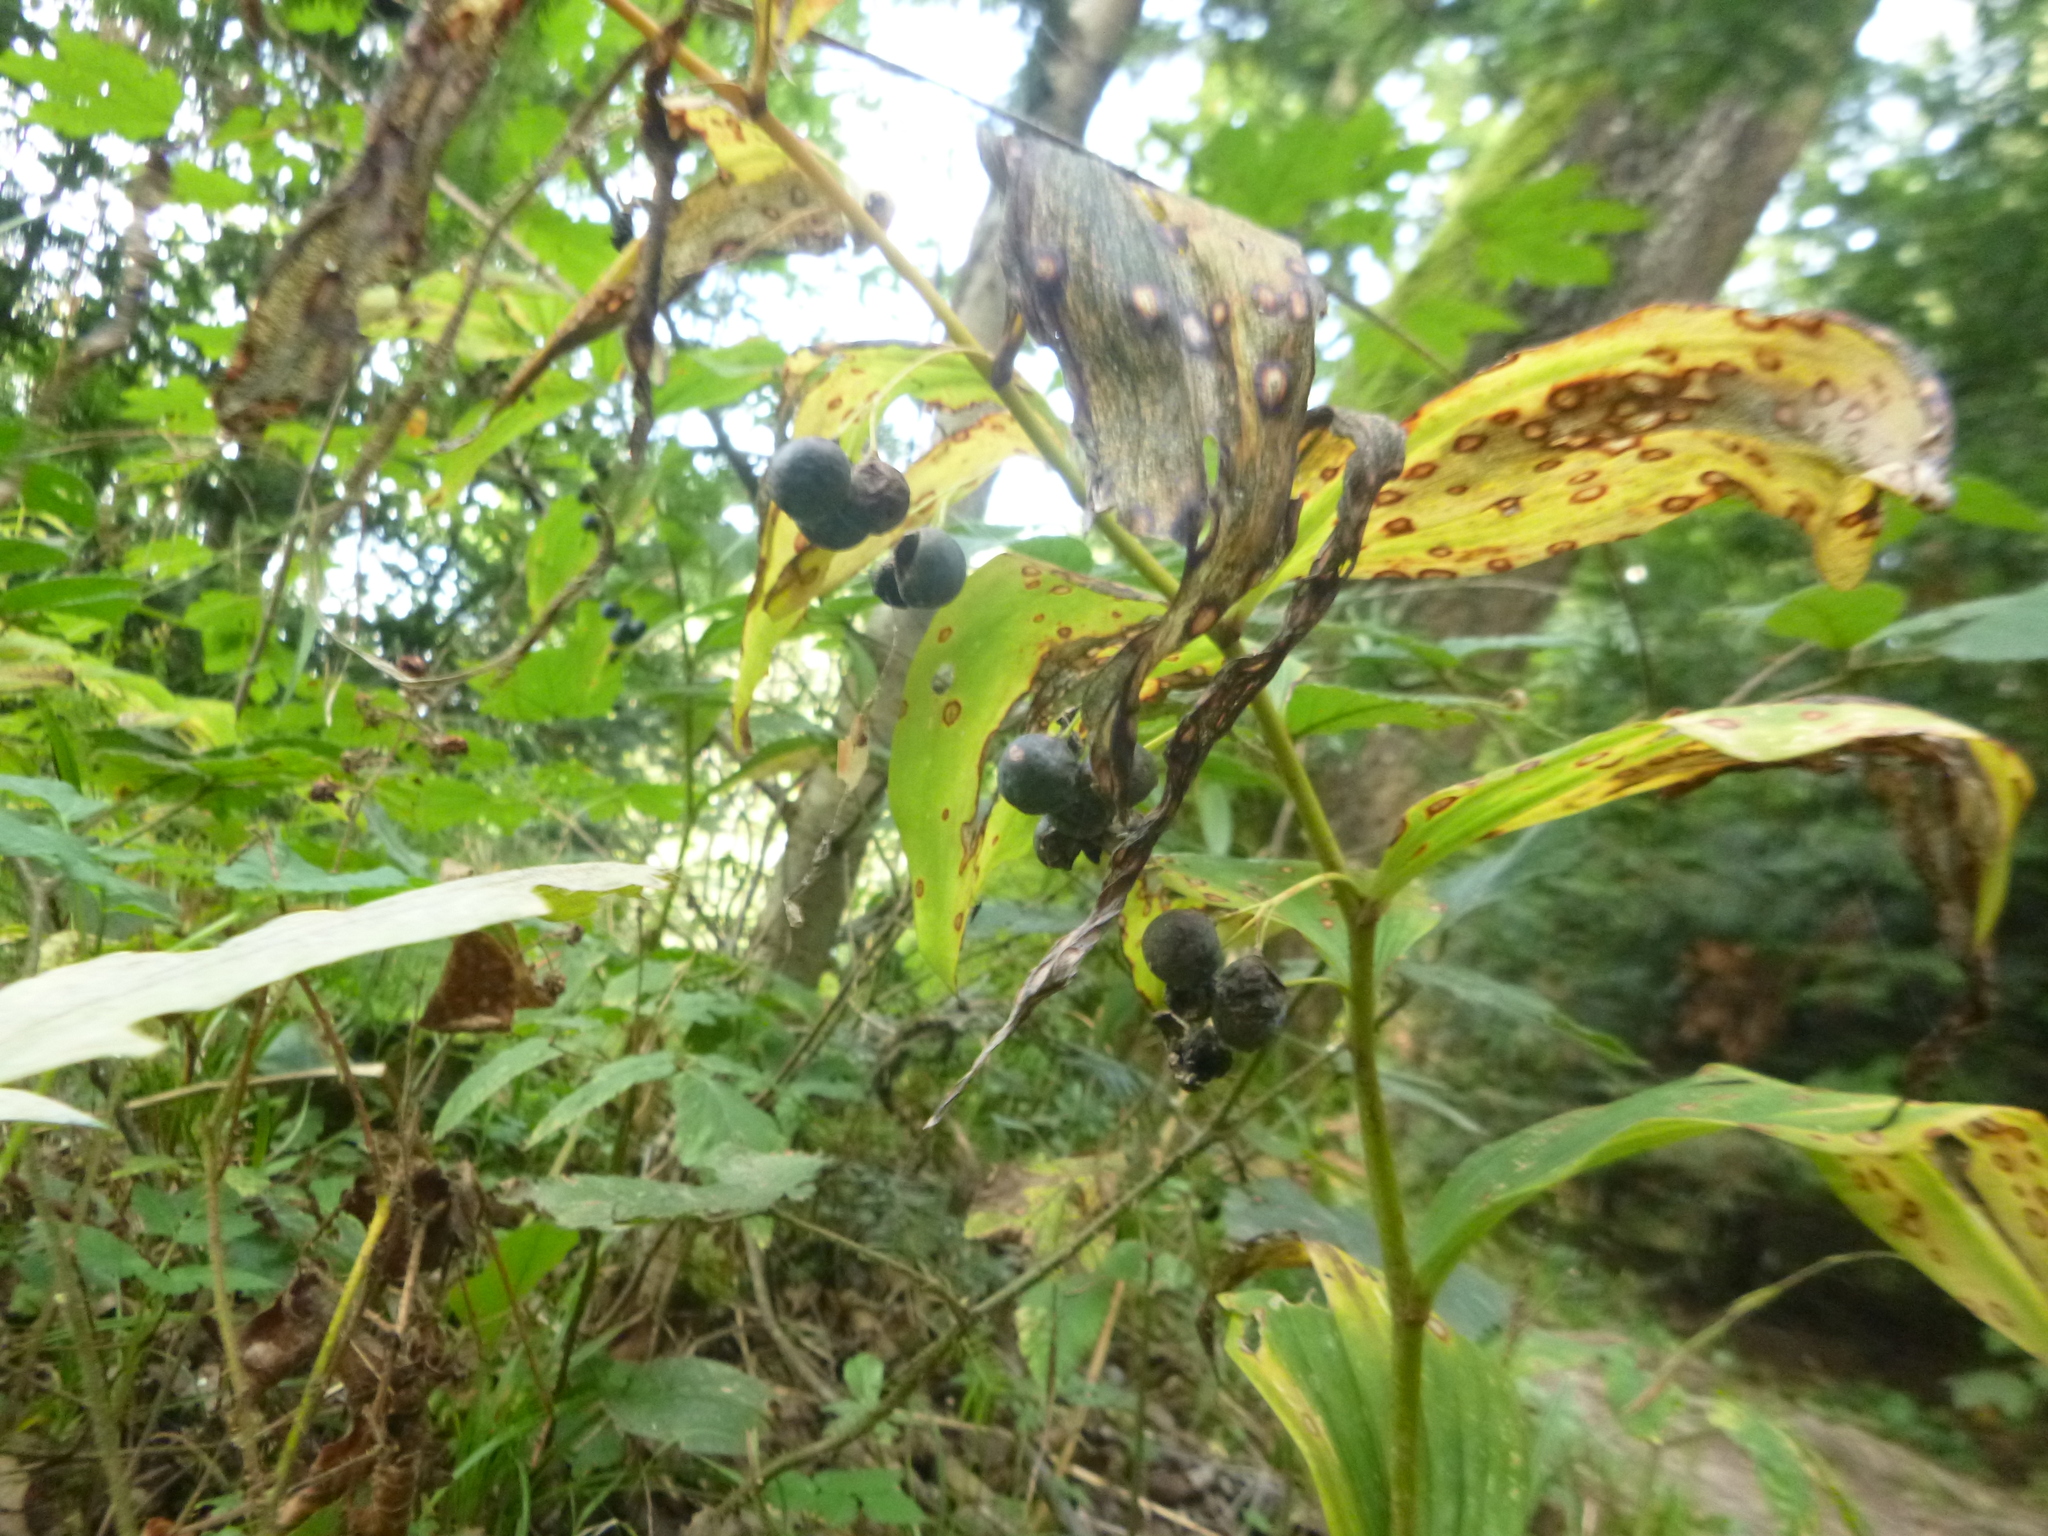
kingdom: Plantae
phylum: Tracheophyta
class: Liliopsida
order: Asparagales
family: Asparagaceae
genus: Polygonatum
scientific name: Polygonatum multiflorum
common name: Solomon's-seal
